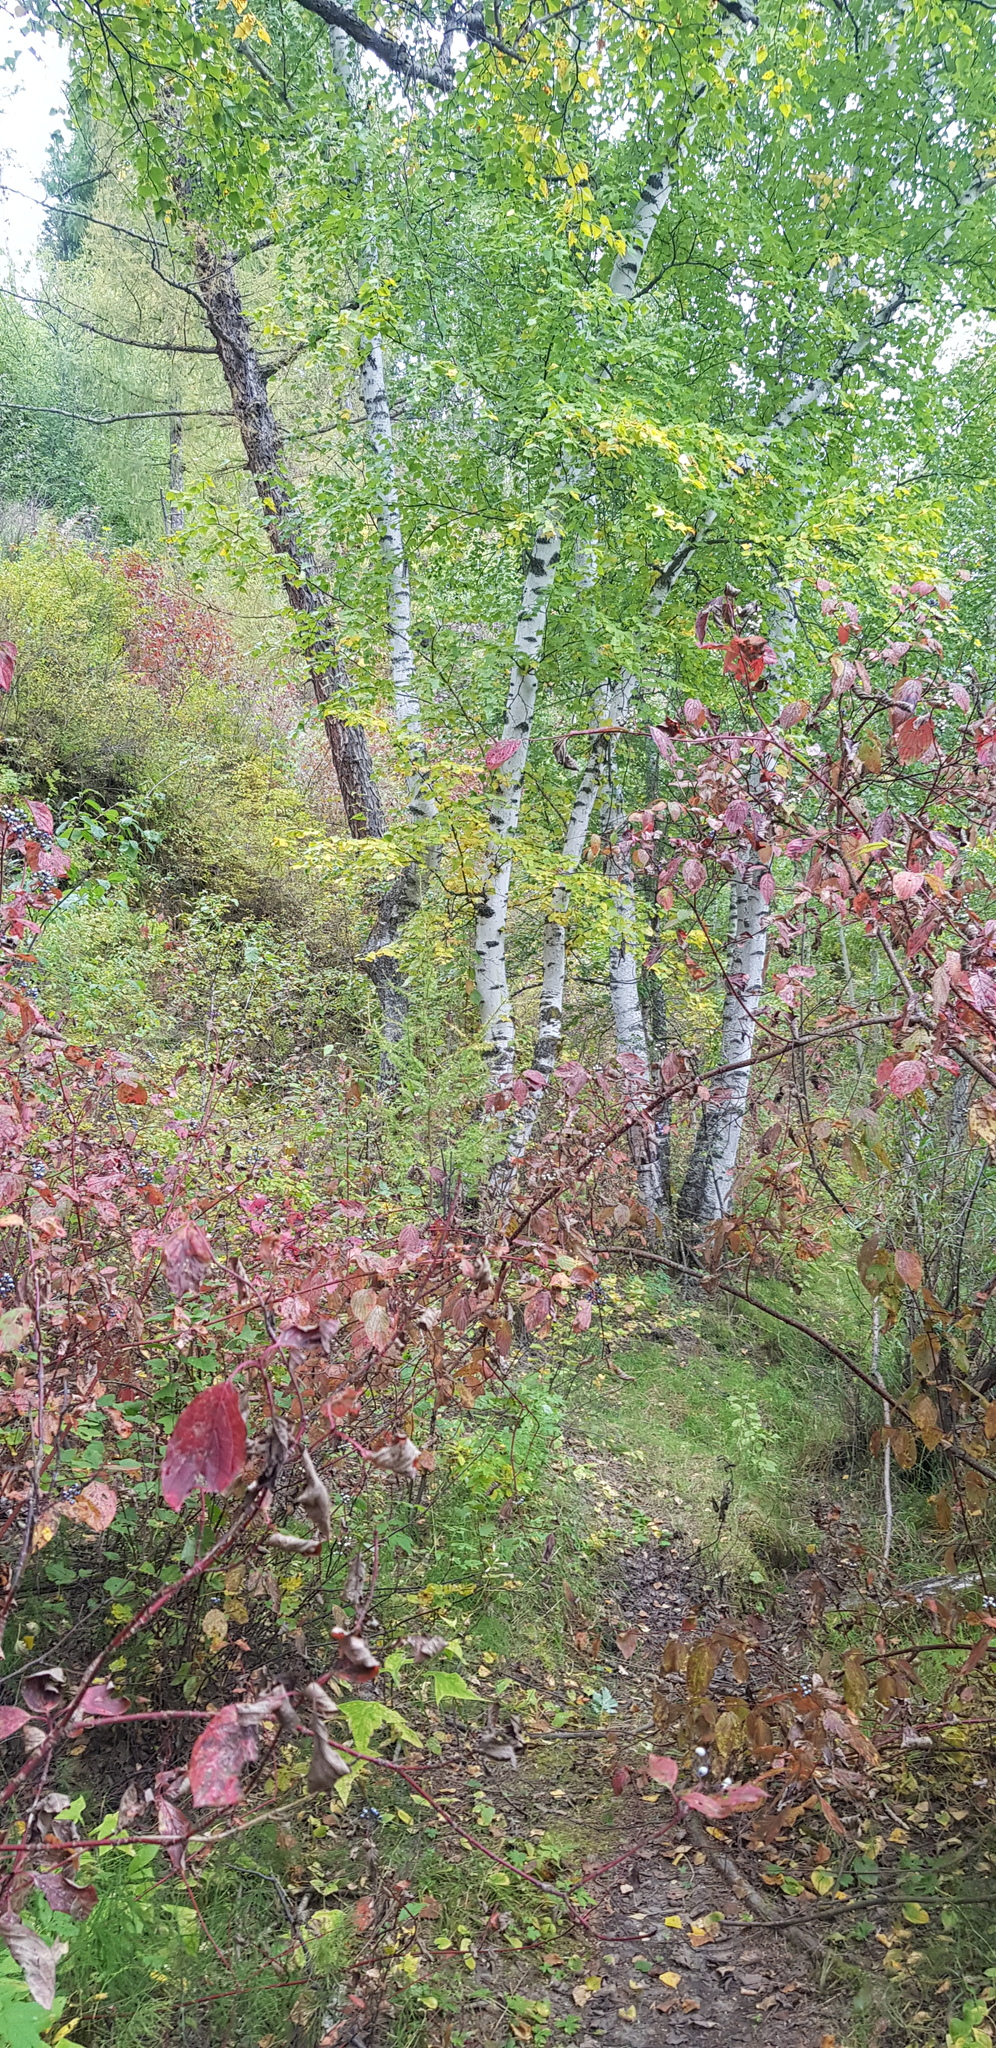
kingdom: Plantae
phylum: Tracheophyta
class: Magnoliopsida
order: Fagales
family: Betulaceae
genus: Betula
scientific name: Betula pendula
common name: Silver birch
